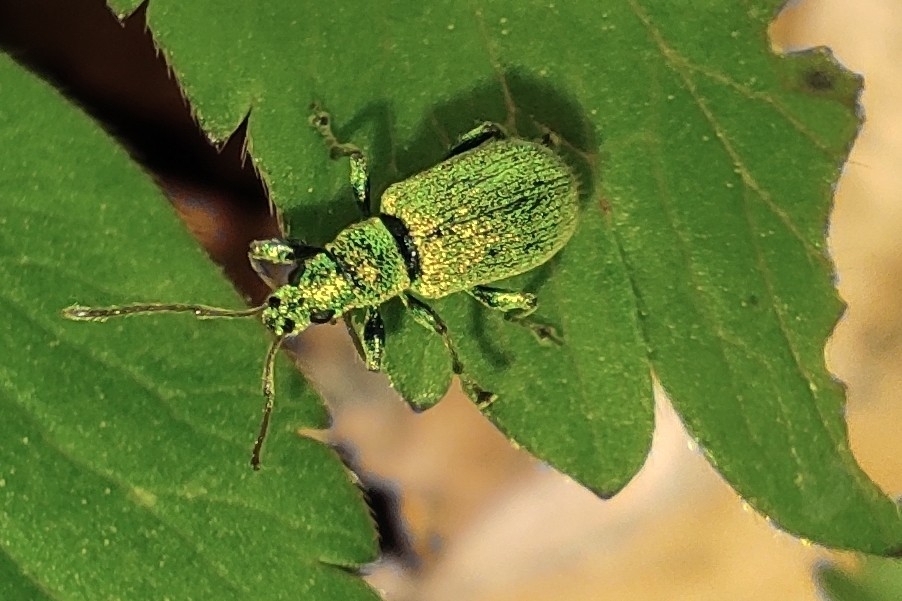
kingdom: Animalia
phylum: Arthropoda
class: Insecta
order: Coleoptera
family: Curculionidae
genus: Phyllobius
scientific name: Phyllobius argentatus
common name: Silver-green leaf weevil
